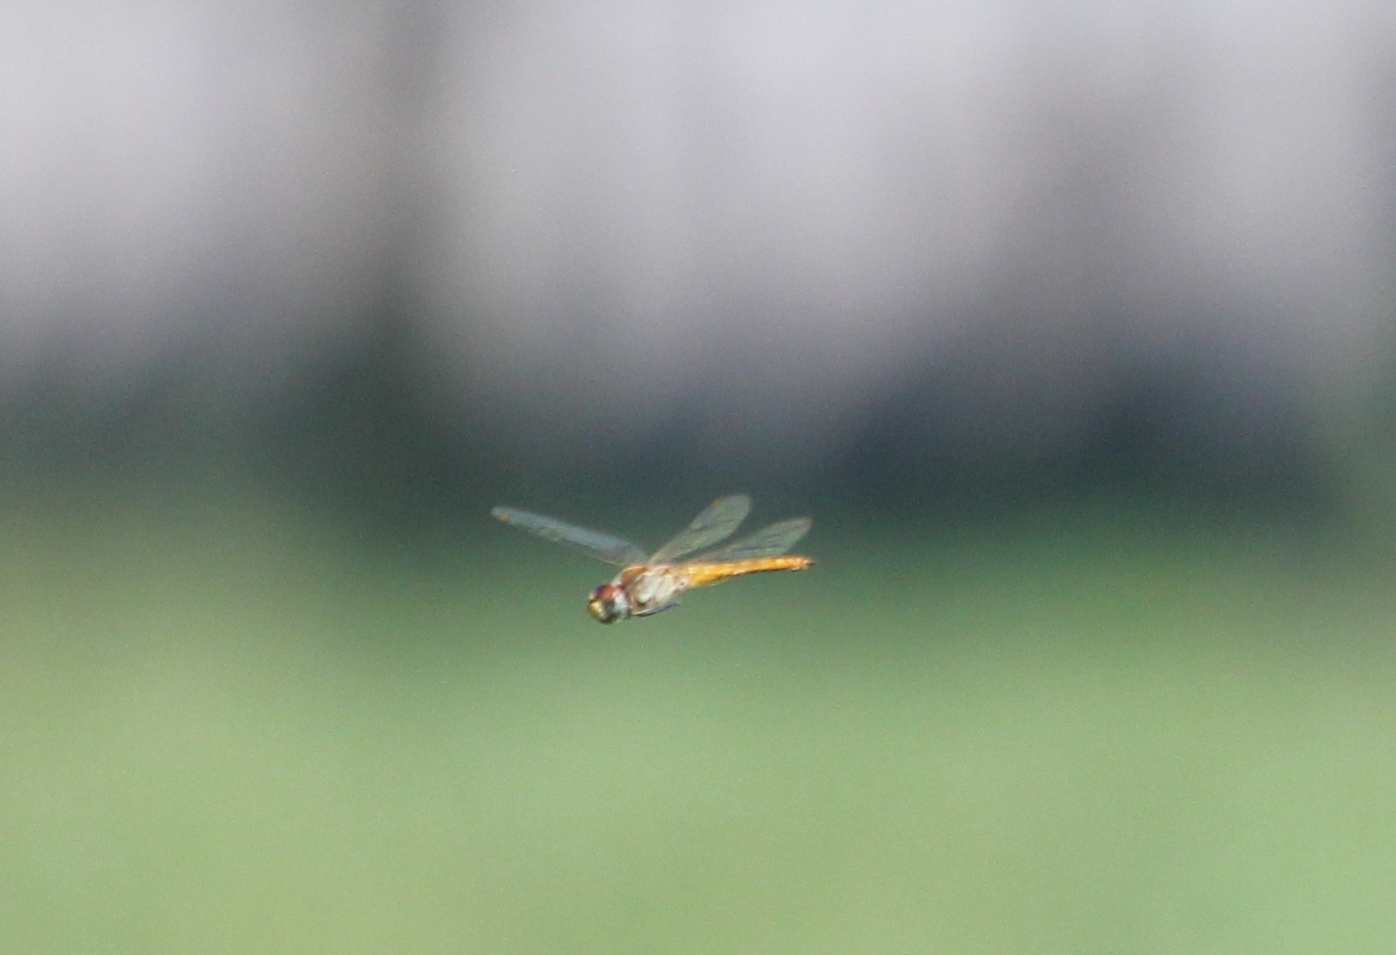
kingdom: Animalia
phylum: Arthropoda
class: Insecta
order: Odonata
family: Libellulidae
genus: Pantala
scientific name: Pantala flavescens
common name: Wandering glider
